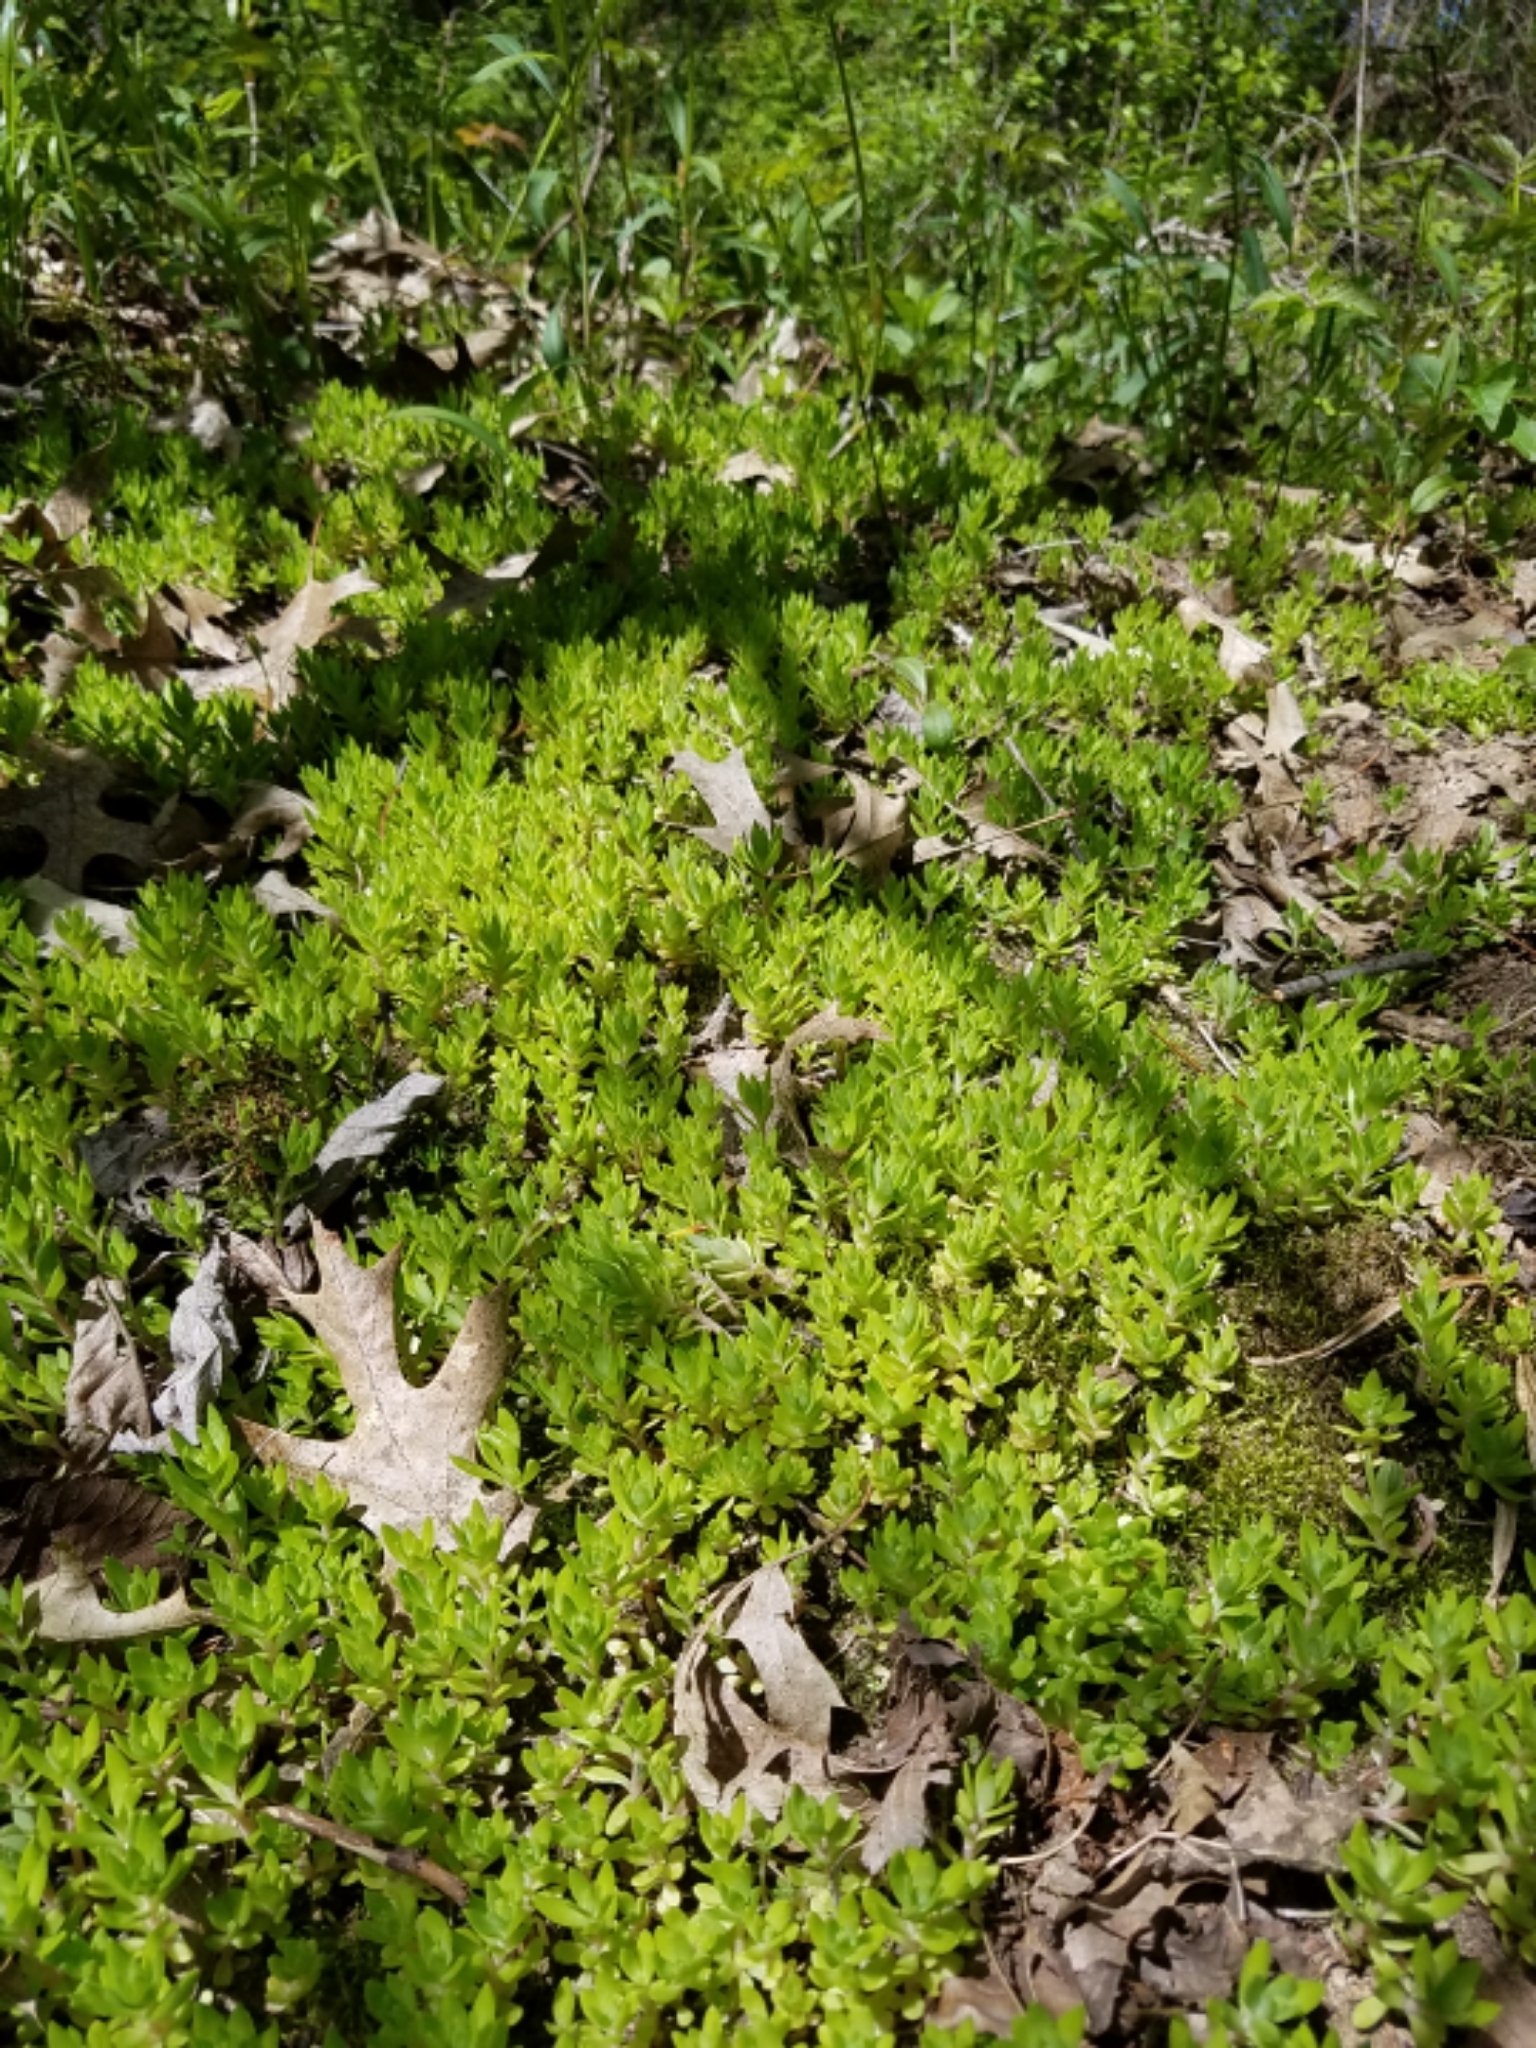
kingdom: Plantae
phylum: Tracheophyta
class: Magnoliopsida
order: Saxifragales
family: Crassulaceae
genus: Sedum
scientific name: Sedum sarmentosum
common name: Stringy stonecrop
